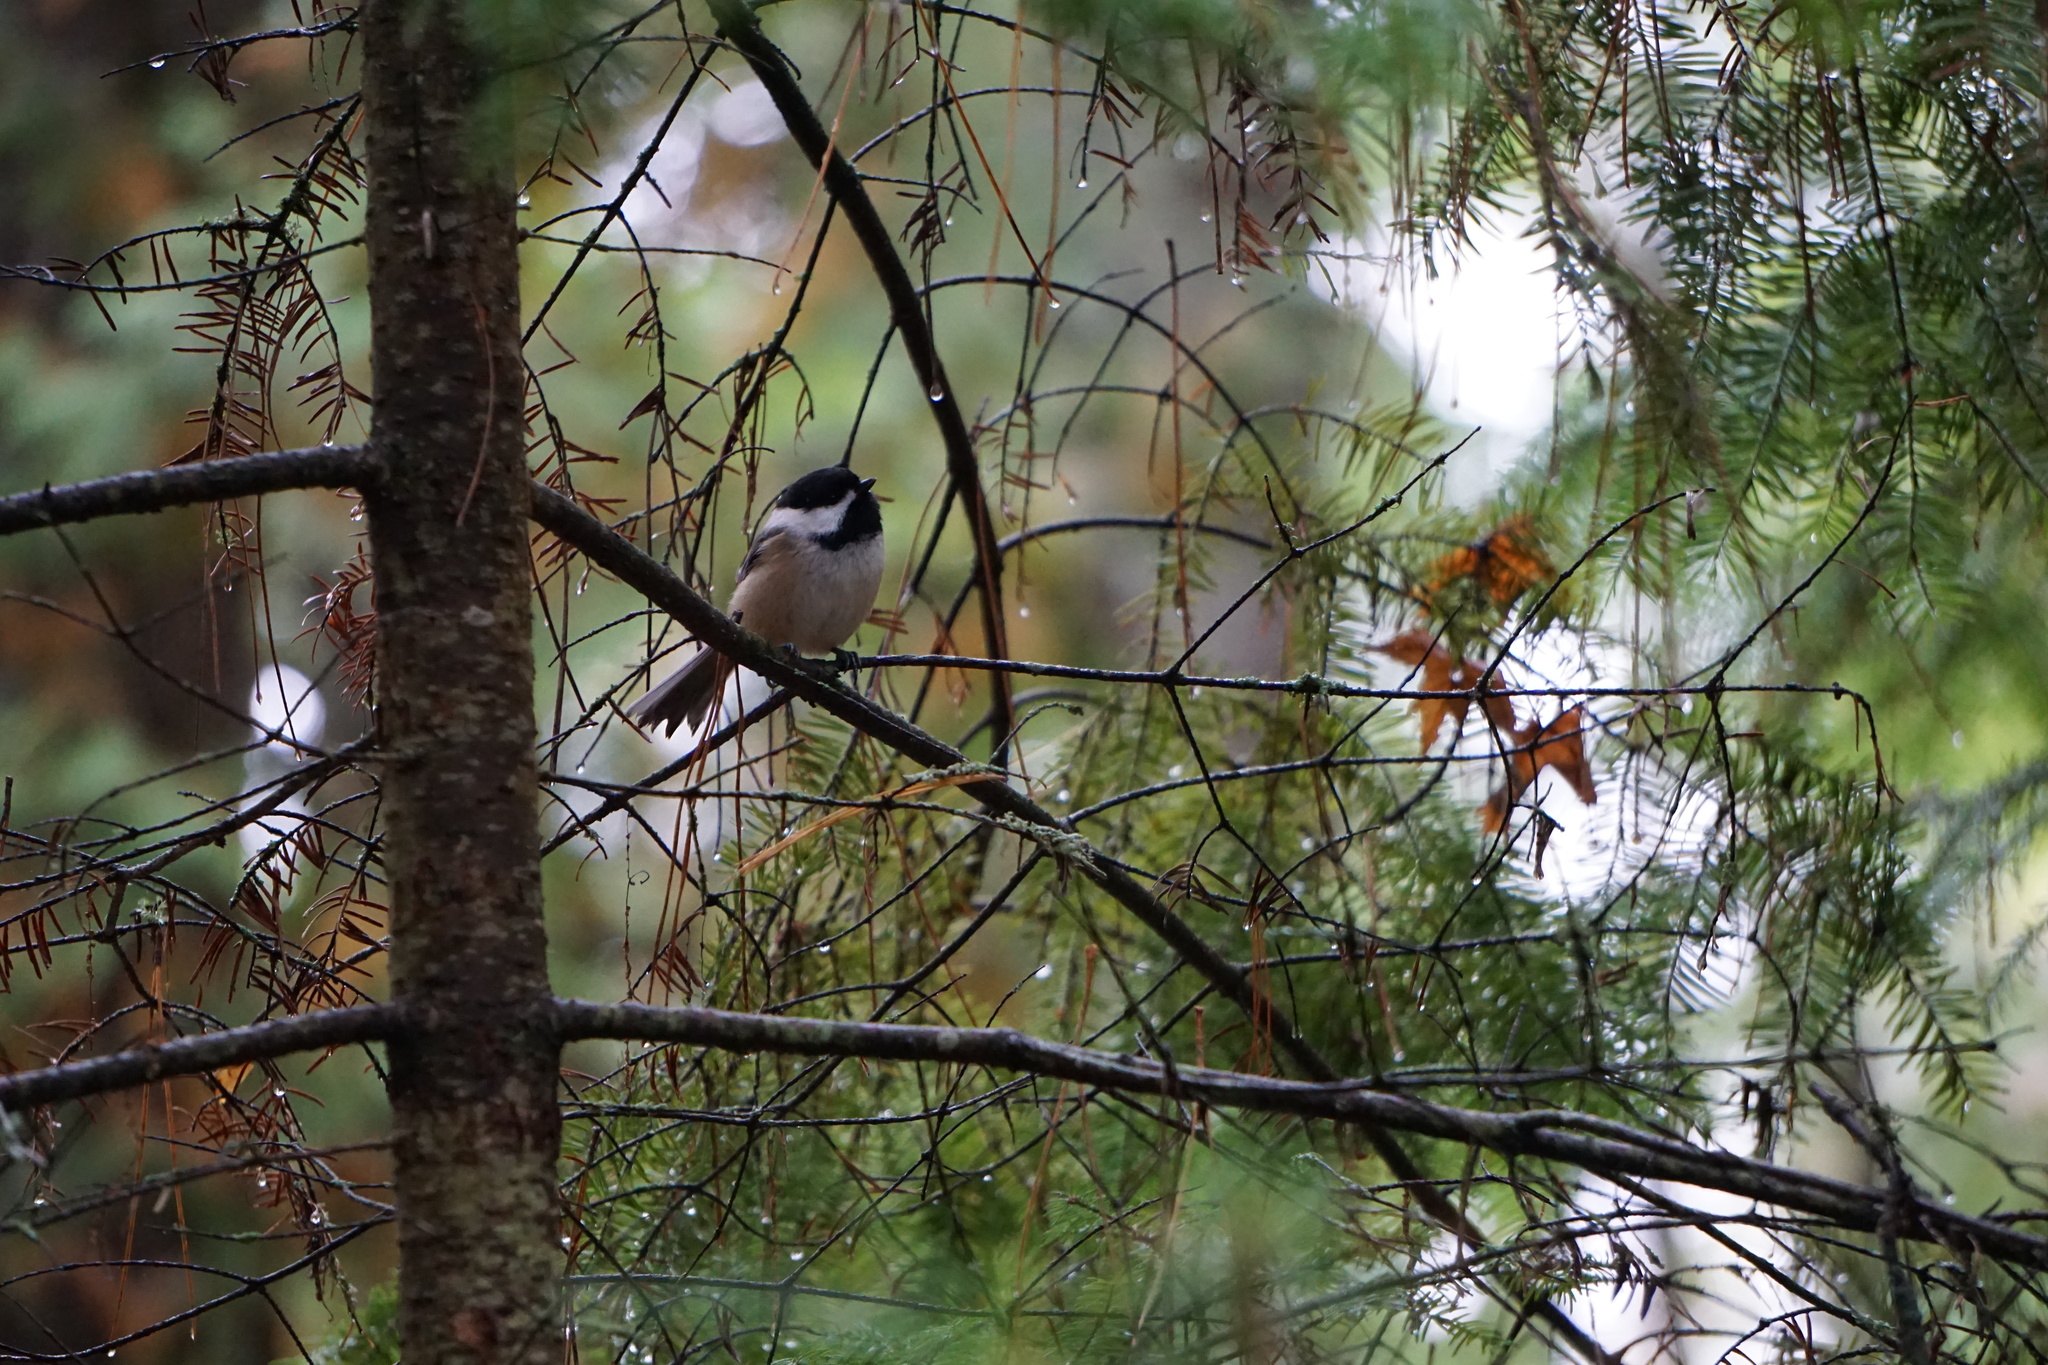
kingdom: Animalia
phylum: Chordata
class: Aves
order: Passeriformes
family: Paridae
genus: Poecile
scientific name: Poecile atricapillus
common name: Black-capped chickadee
